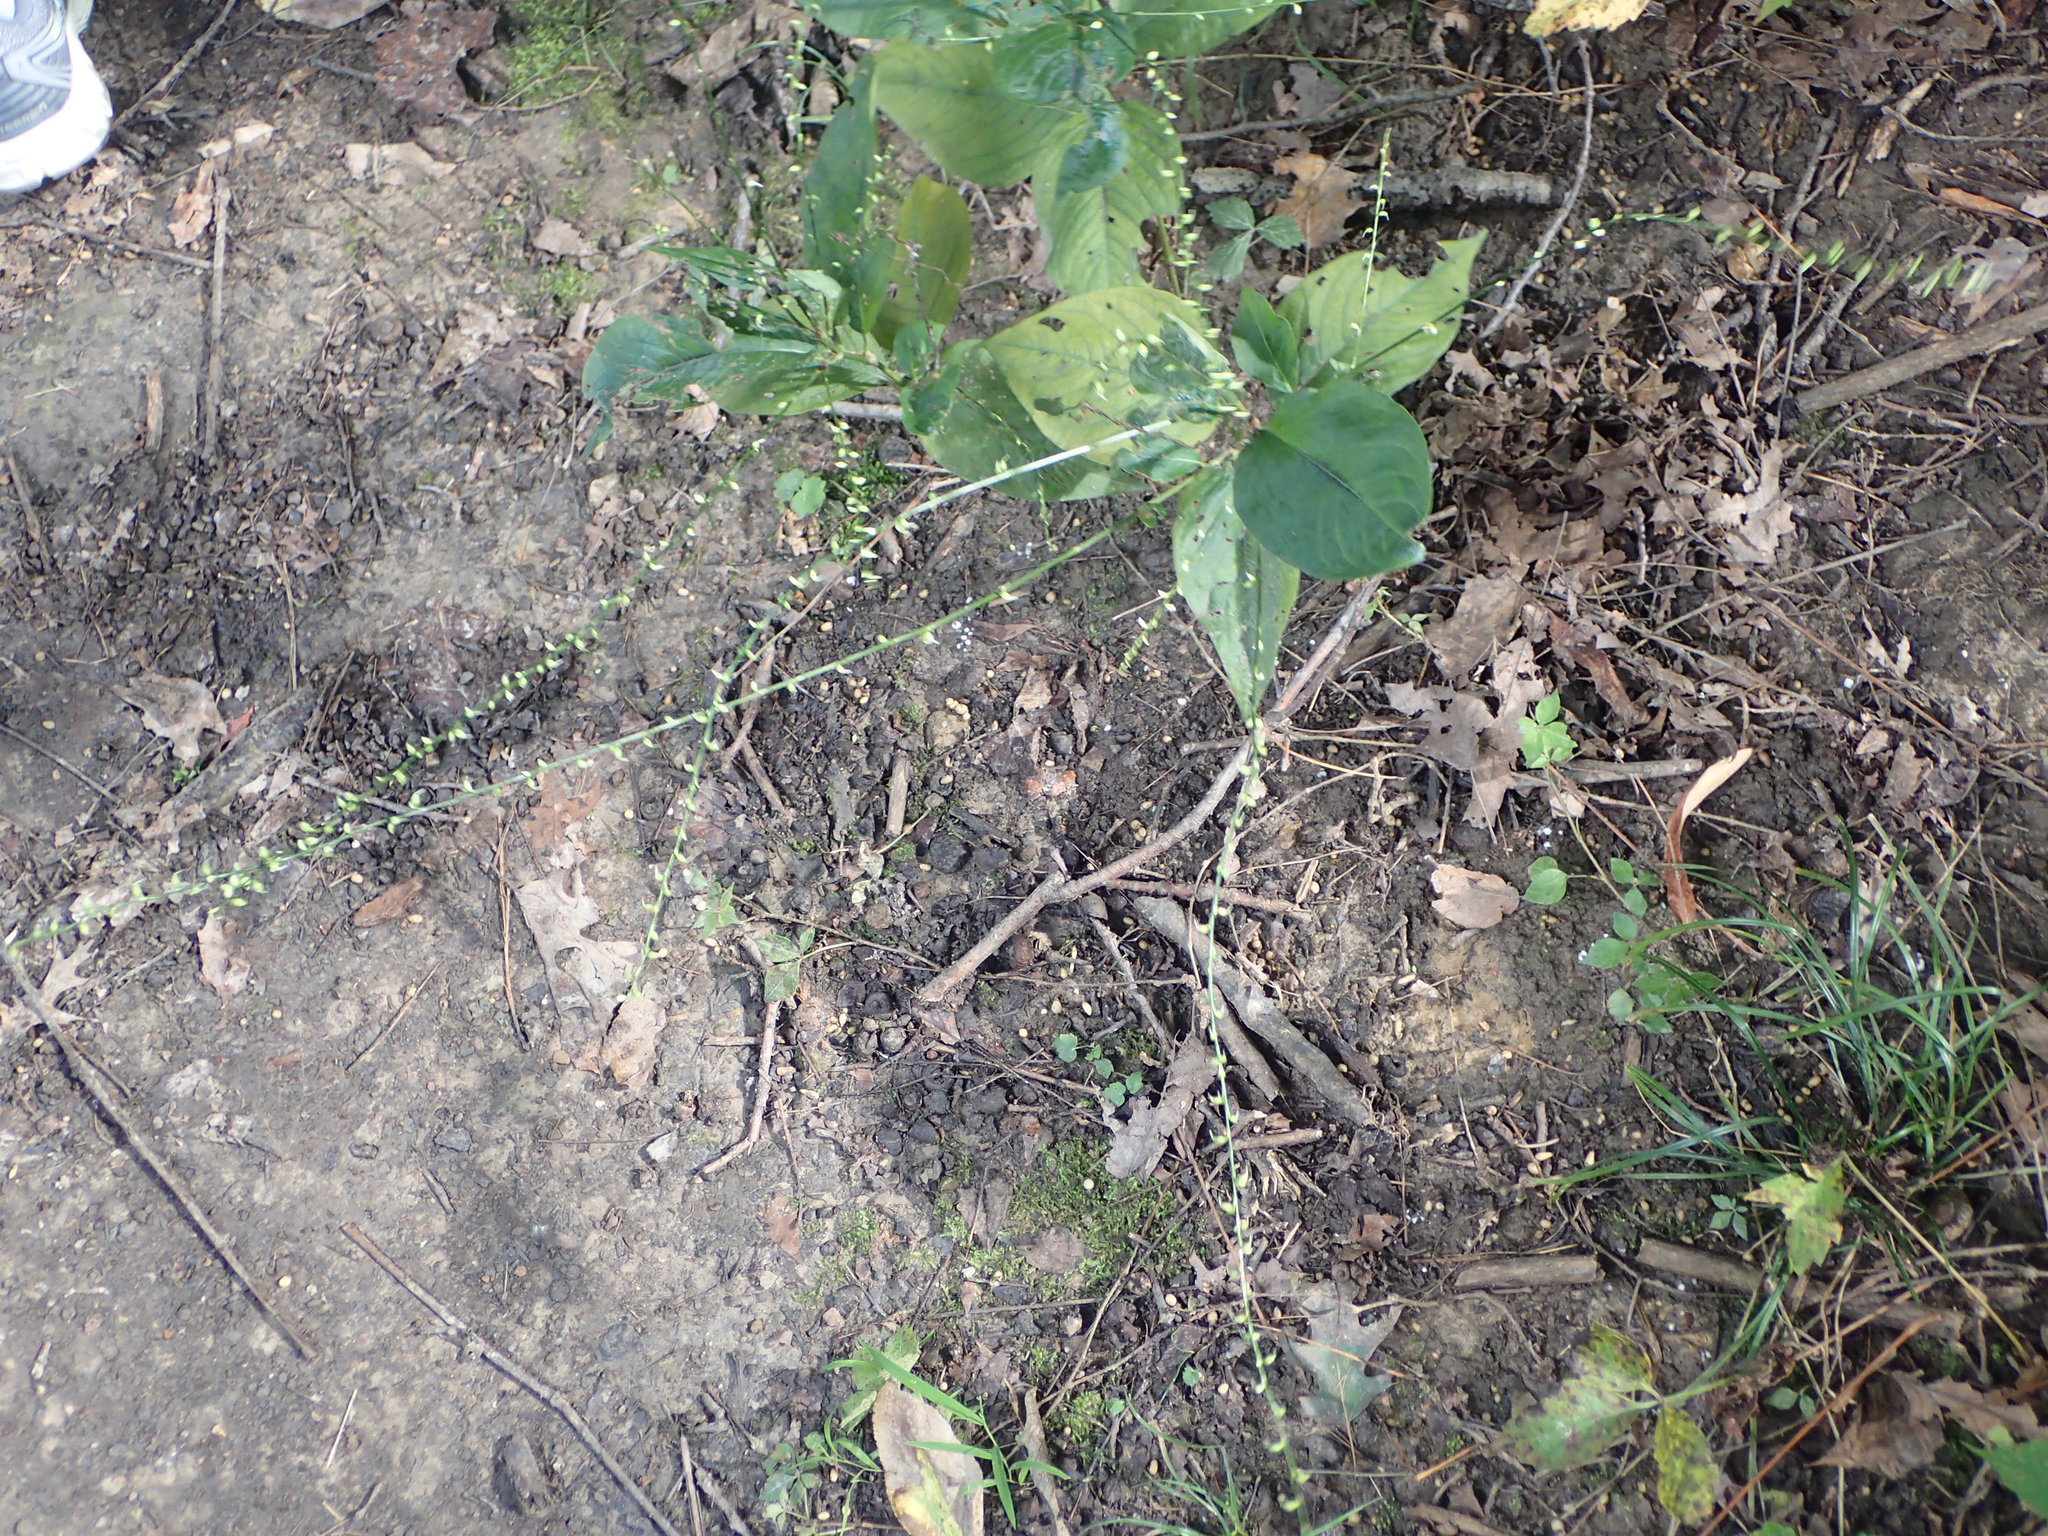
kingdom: Plantae
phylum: Tracheophyta
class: Magnoliopsida
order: Caryophyllales
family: Polygonaceae
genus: Persicaria
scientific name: Persicaria virginiana
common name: Jumpseed
